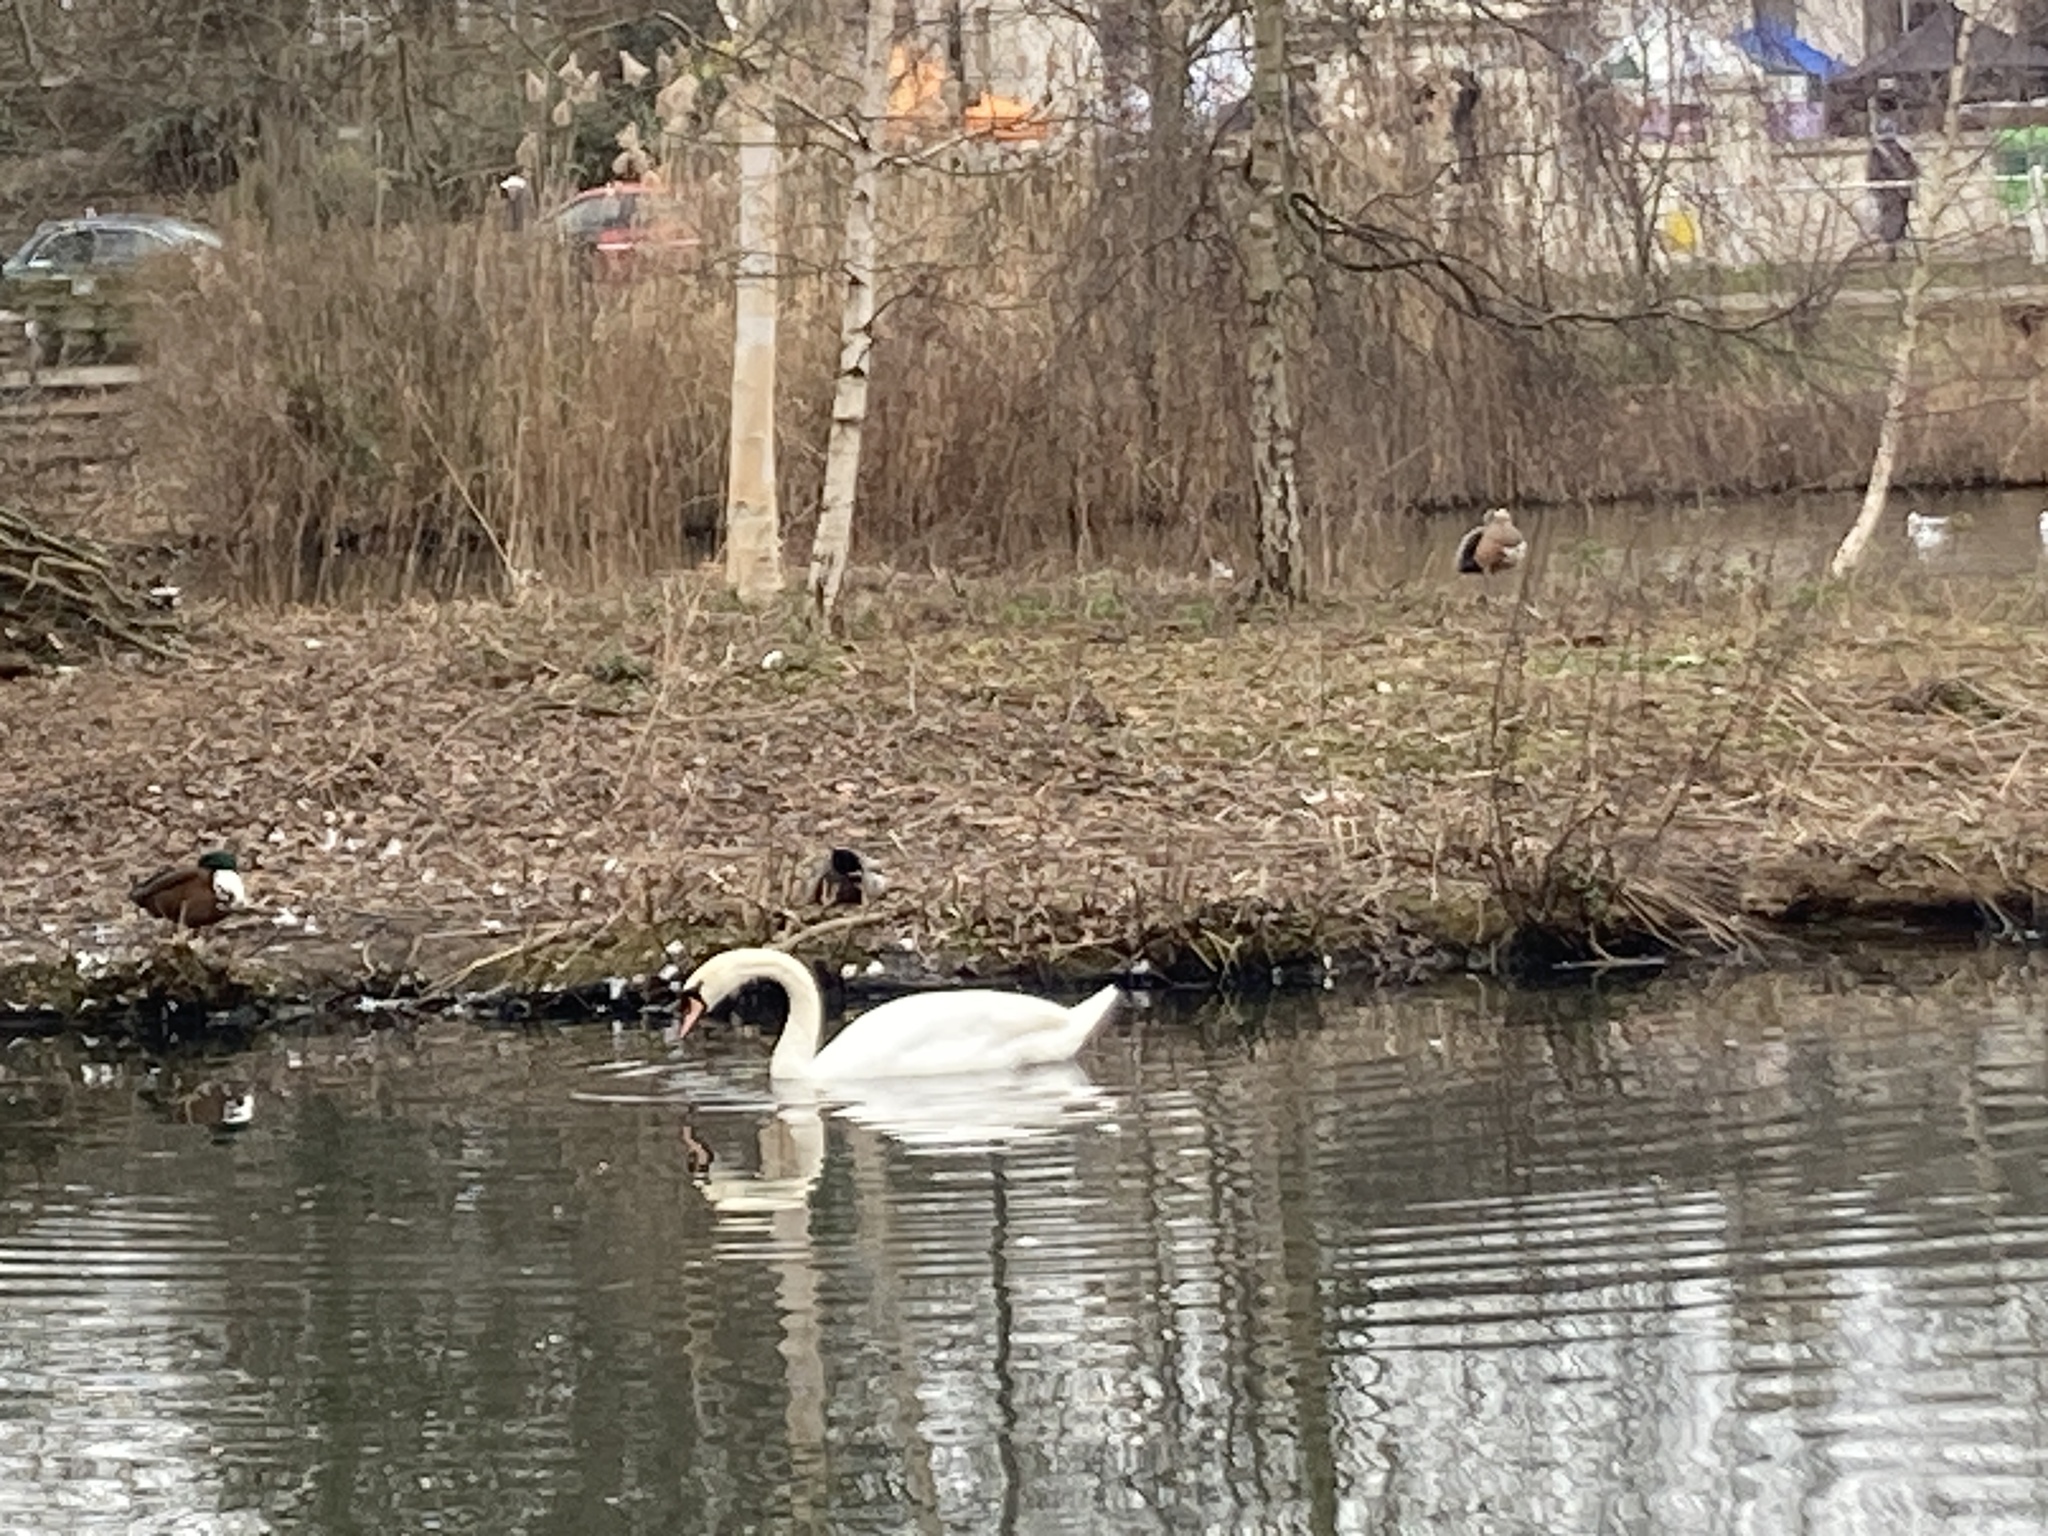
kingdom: Animalia
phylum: Chordata
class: Aves
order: Anseriformes
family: Anatidae
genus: Cygnus
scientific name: Cygnus olor
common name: Mute swan
